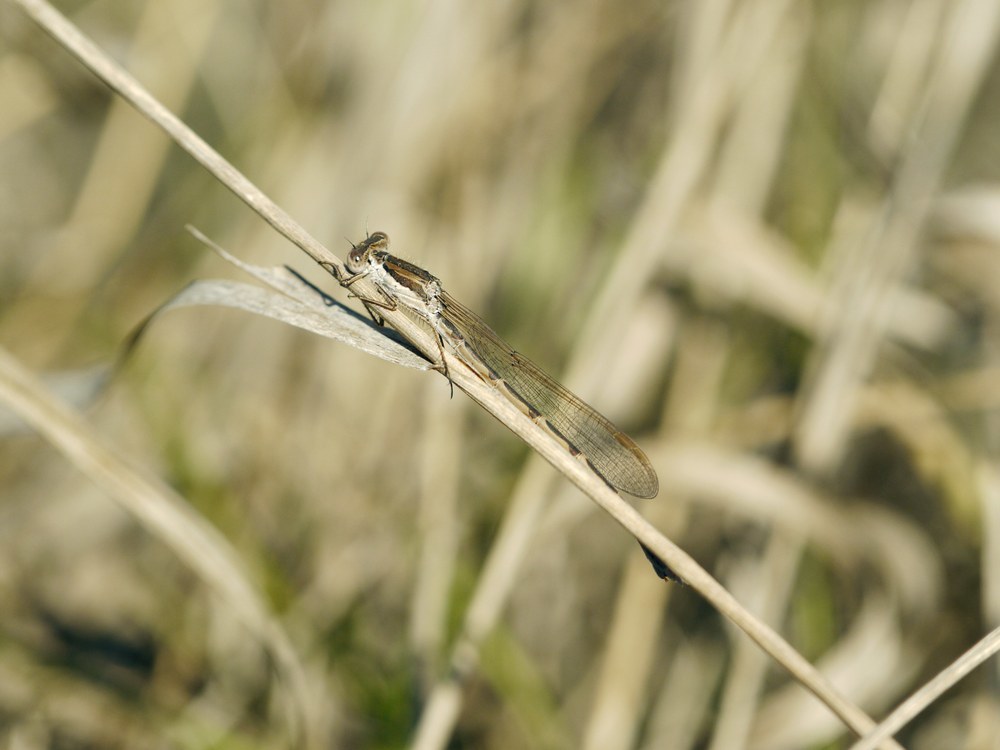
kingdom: Animalia
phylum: Arthropoda
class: Insecta
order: Odonata
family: Lestidae
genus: Sympecma
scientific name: Sympecma fusca
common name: Common winter damsel
